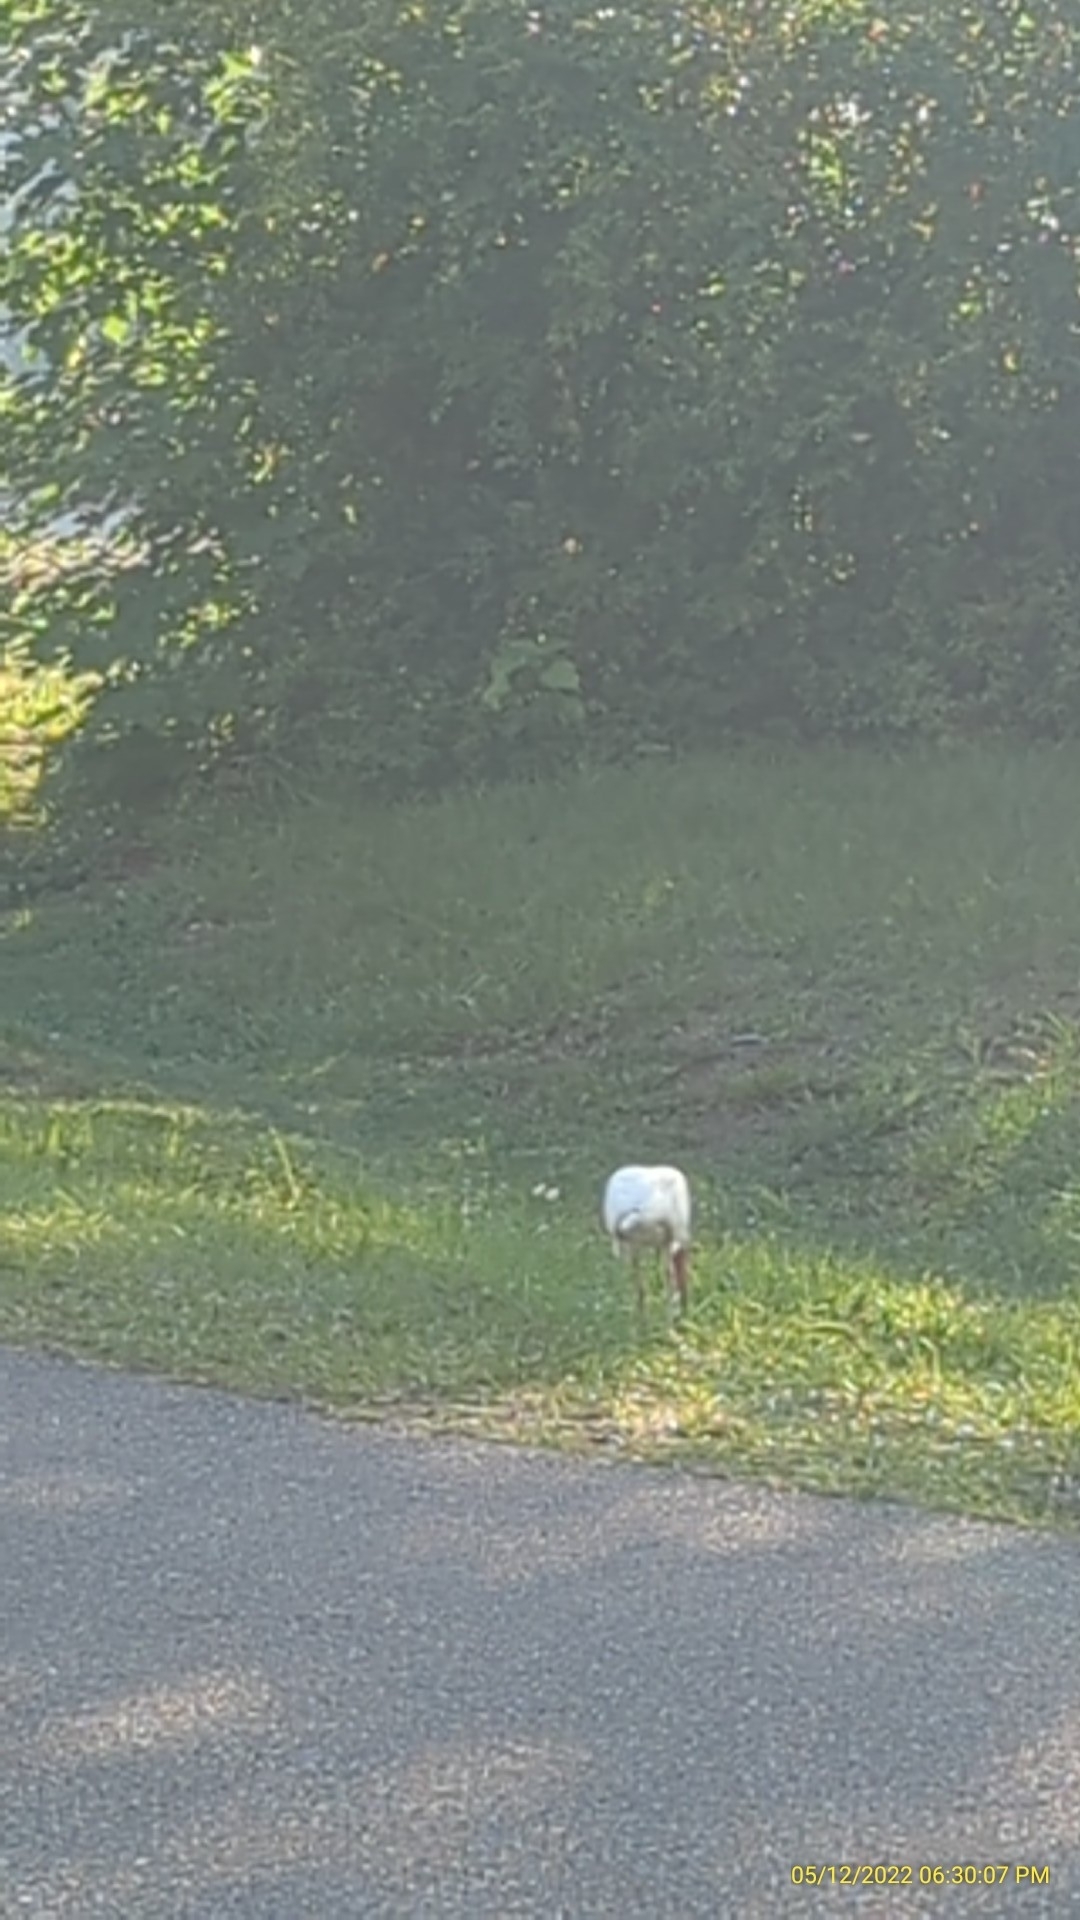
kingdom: Animalia
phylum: Chordata
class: Aves
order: Pelecaniformes
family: Threskiornithidae
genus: Eudocimus
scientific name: Eudocimus albus
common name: White ibis
